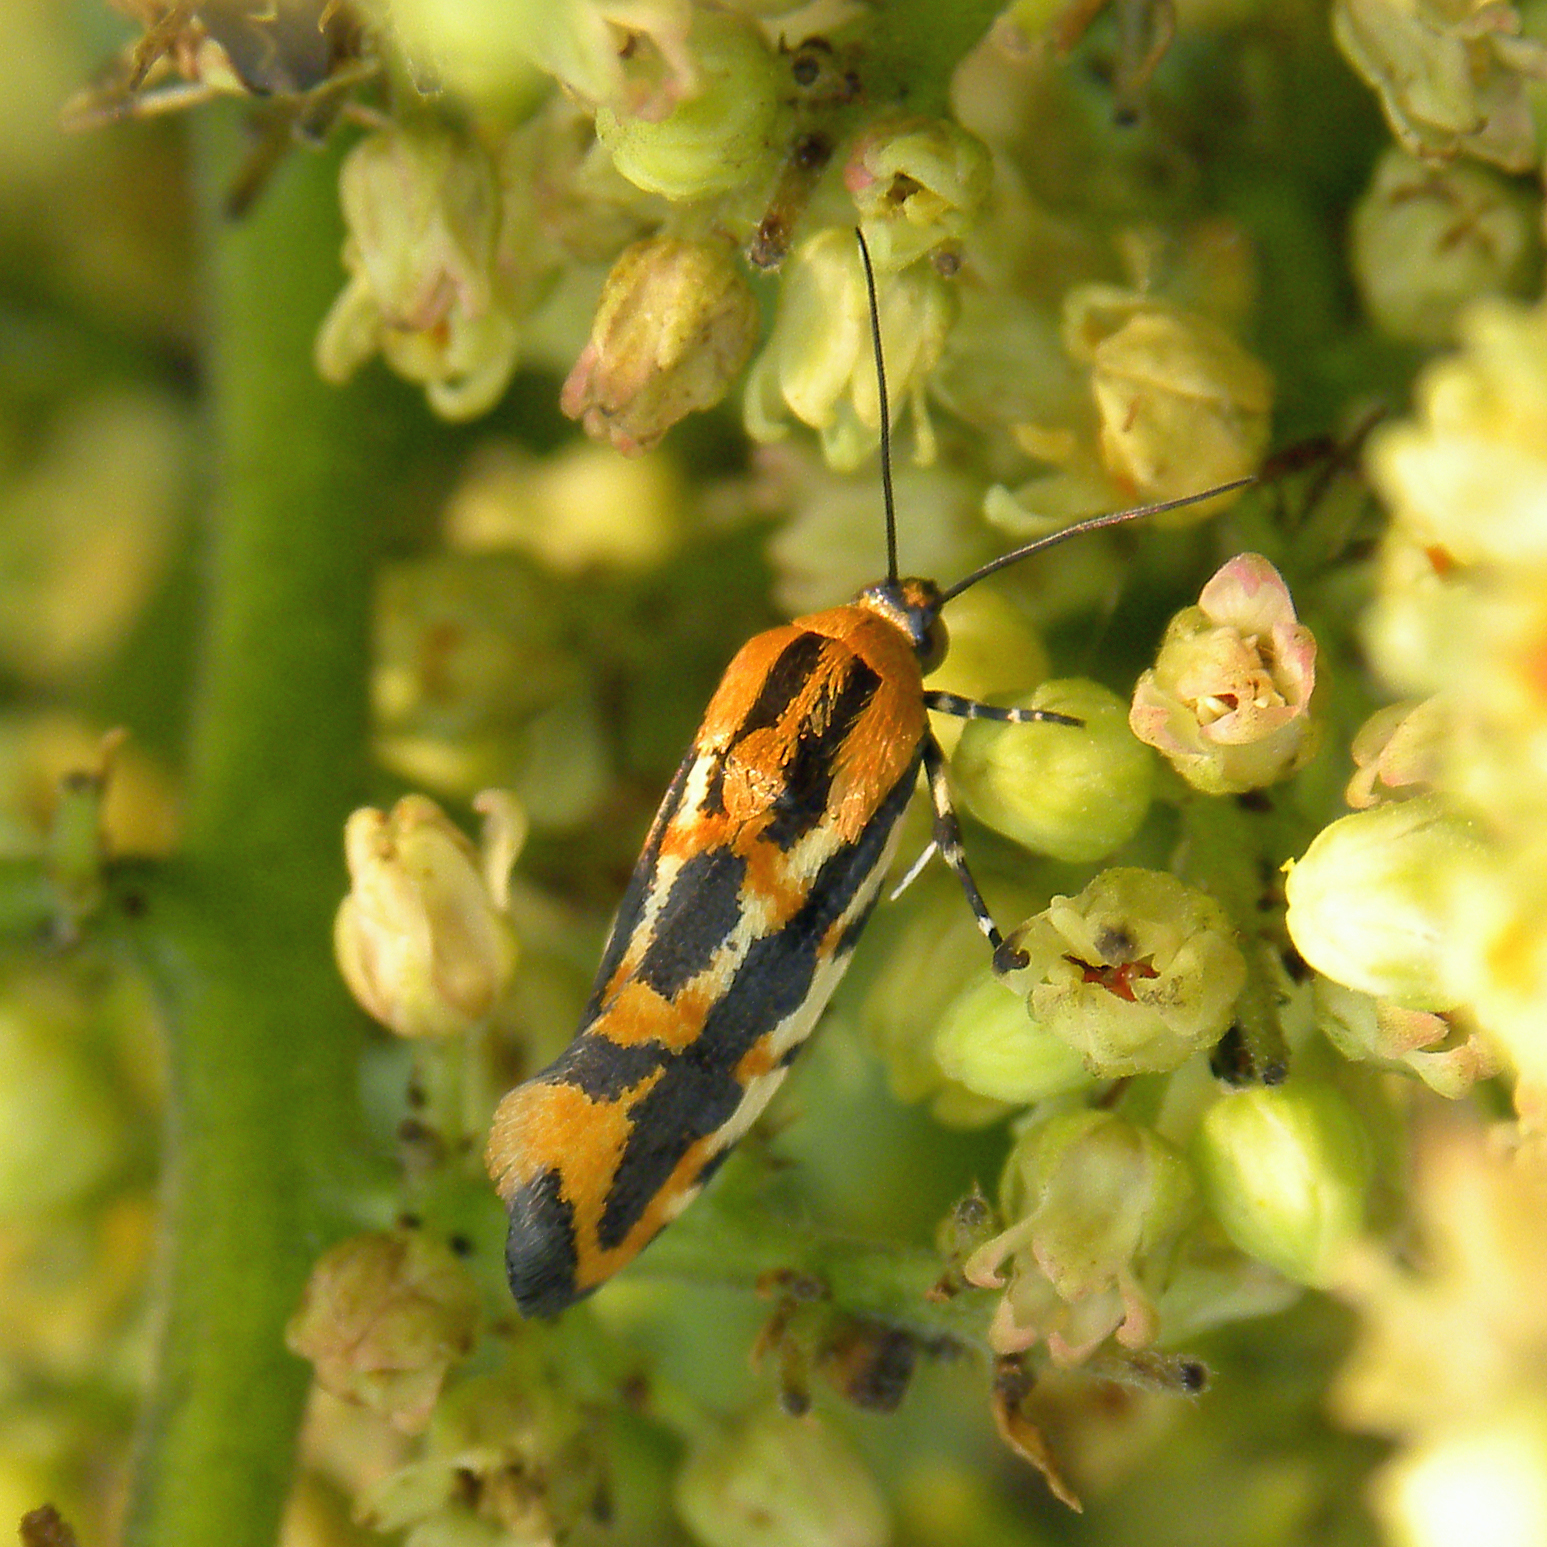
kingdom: Animalia
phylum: Arthropoda
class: Insecta
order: Lepidoptera
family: Noctuidae
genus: Acontia
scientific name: Acontia leo
